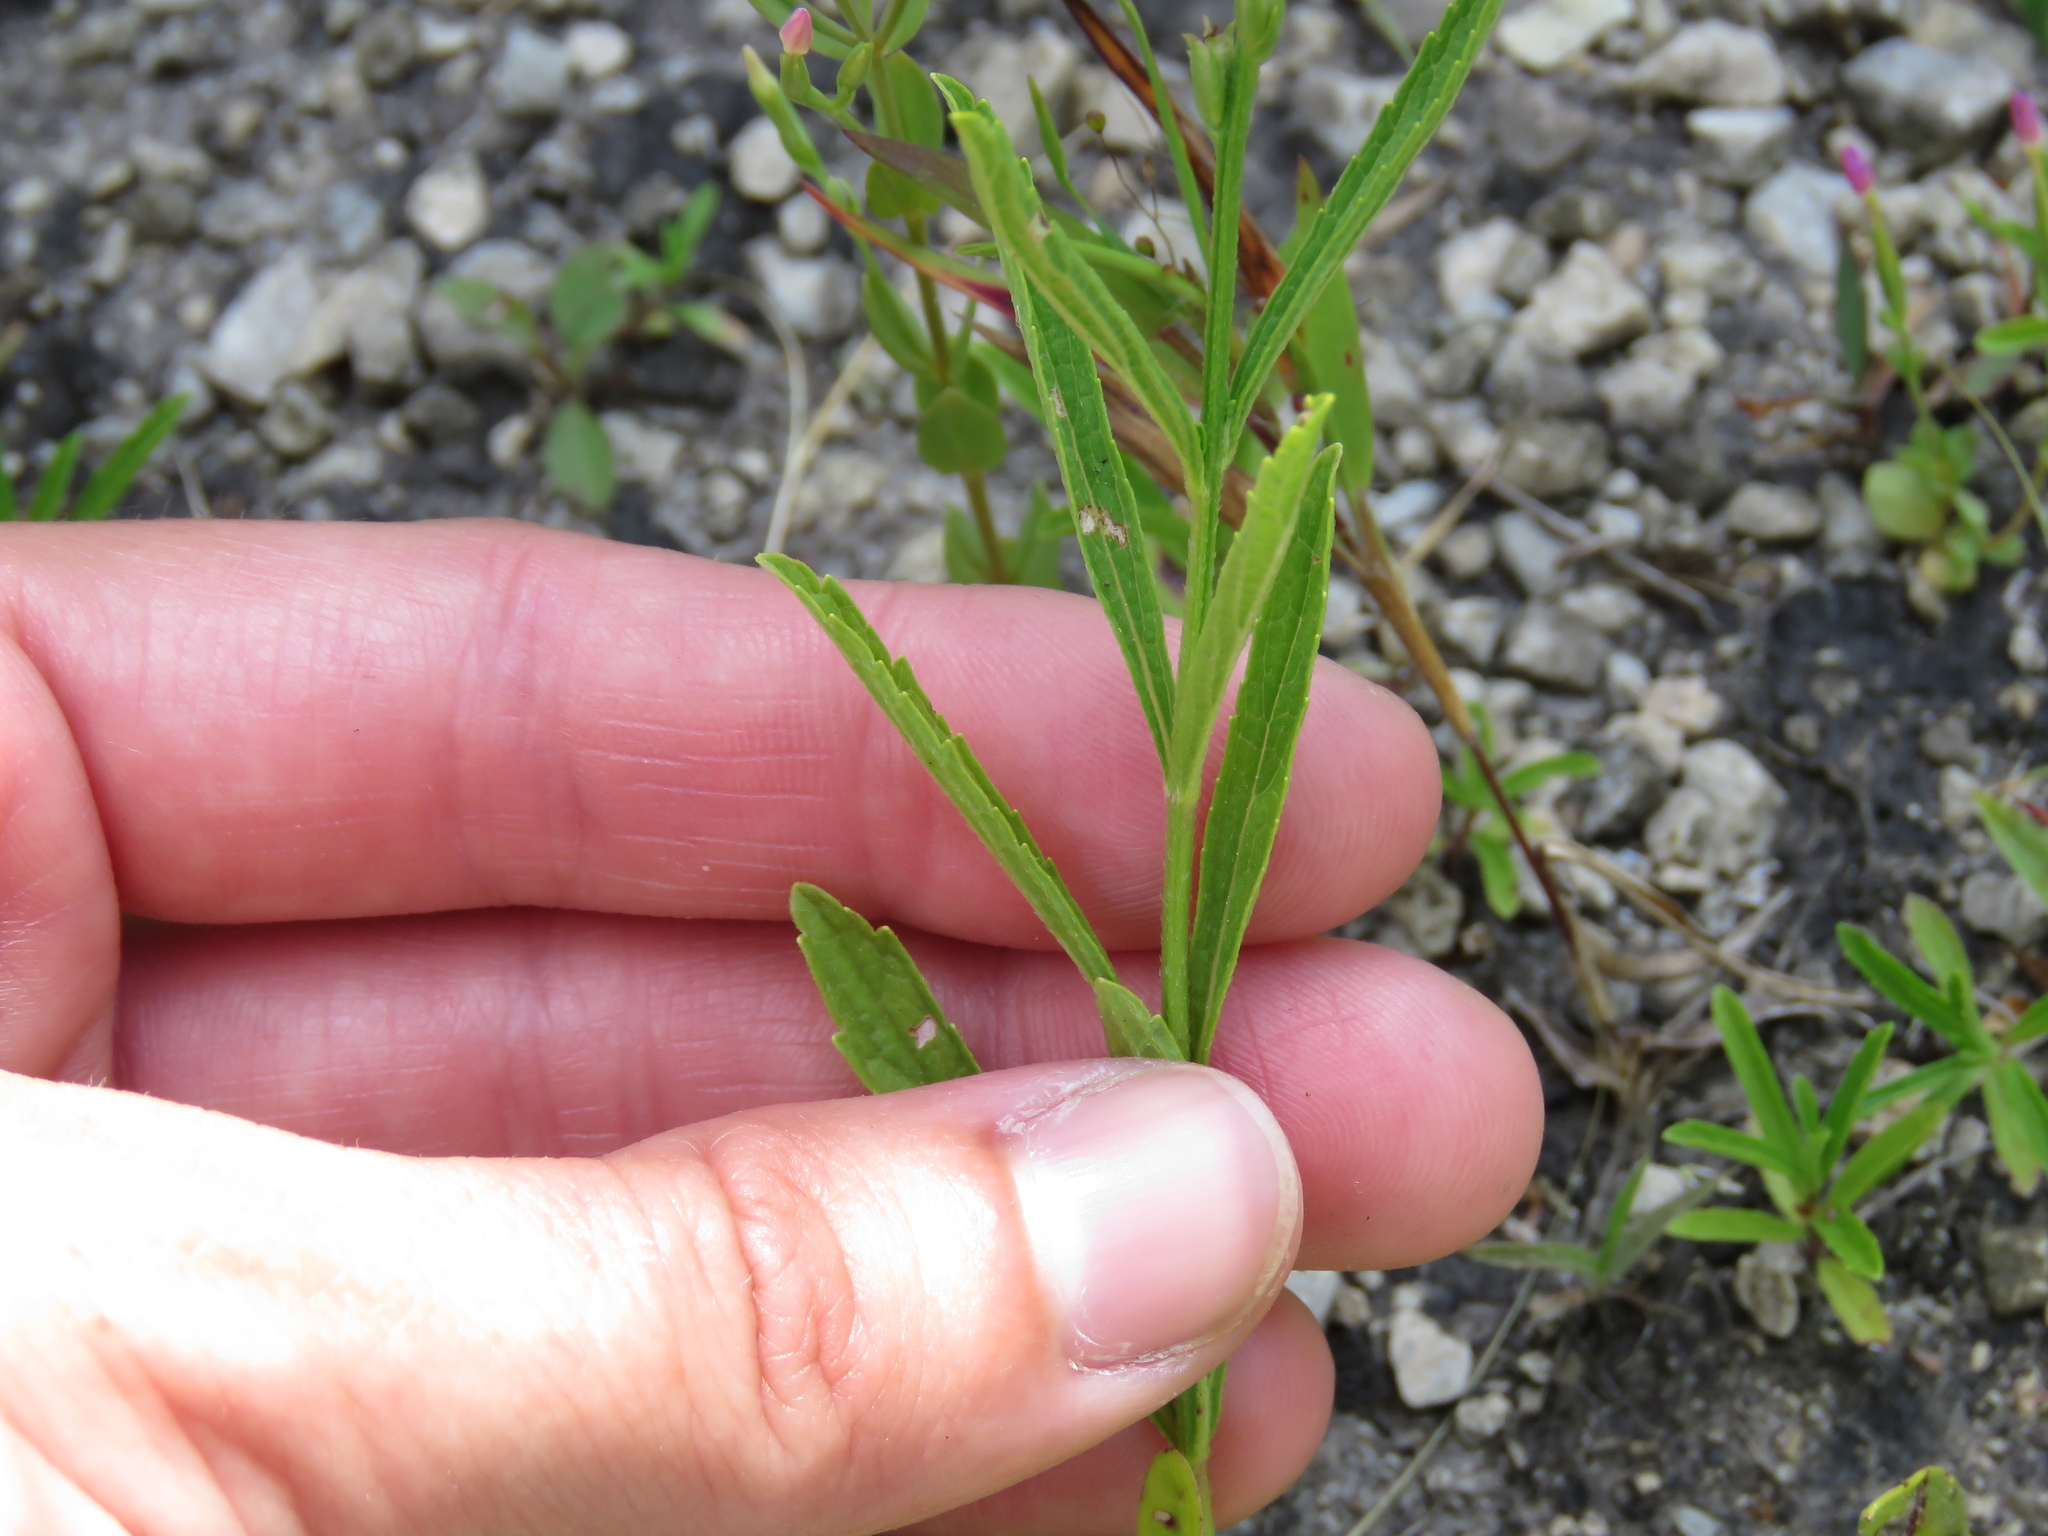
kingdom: Plantae
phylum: Tracheophyta
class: Magnoliopsida
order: Lamiales
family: Verbenaceae
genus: Verbena
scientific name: Verbena simplex
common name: Narrow-leaf vervain
